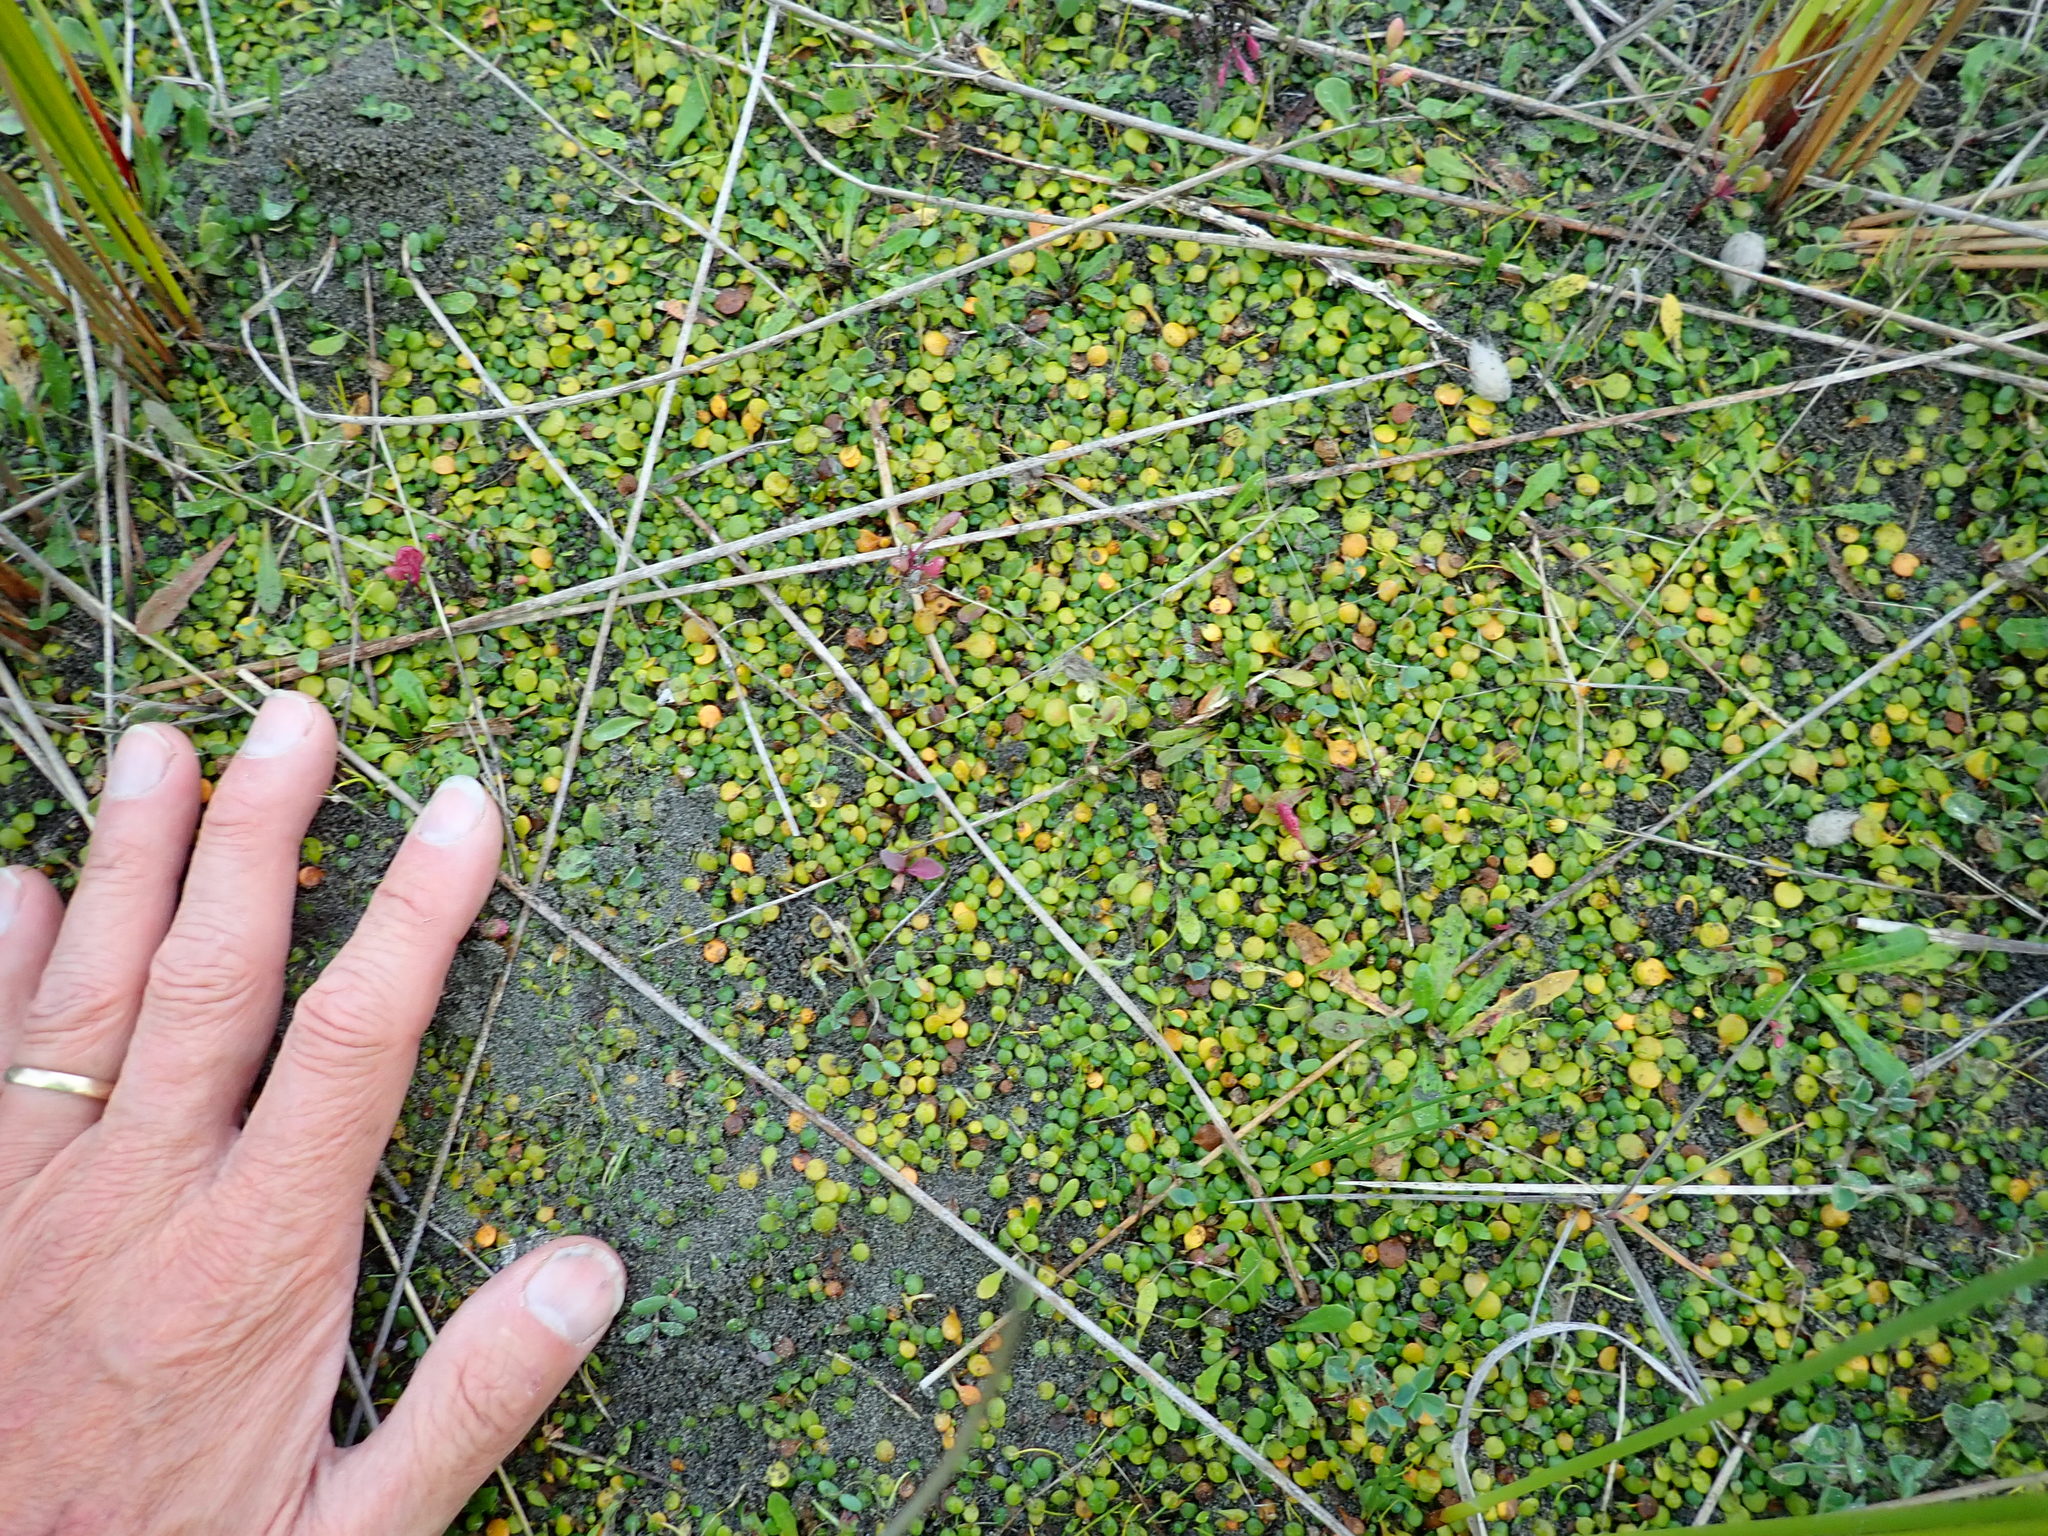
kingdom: Plantae
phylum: Tracheophyta
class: Magnoliopsida
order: Asterales
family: Goodeniaceae
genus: Goodenia
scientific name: Goodenia heenanii
